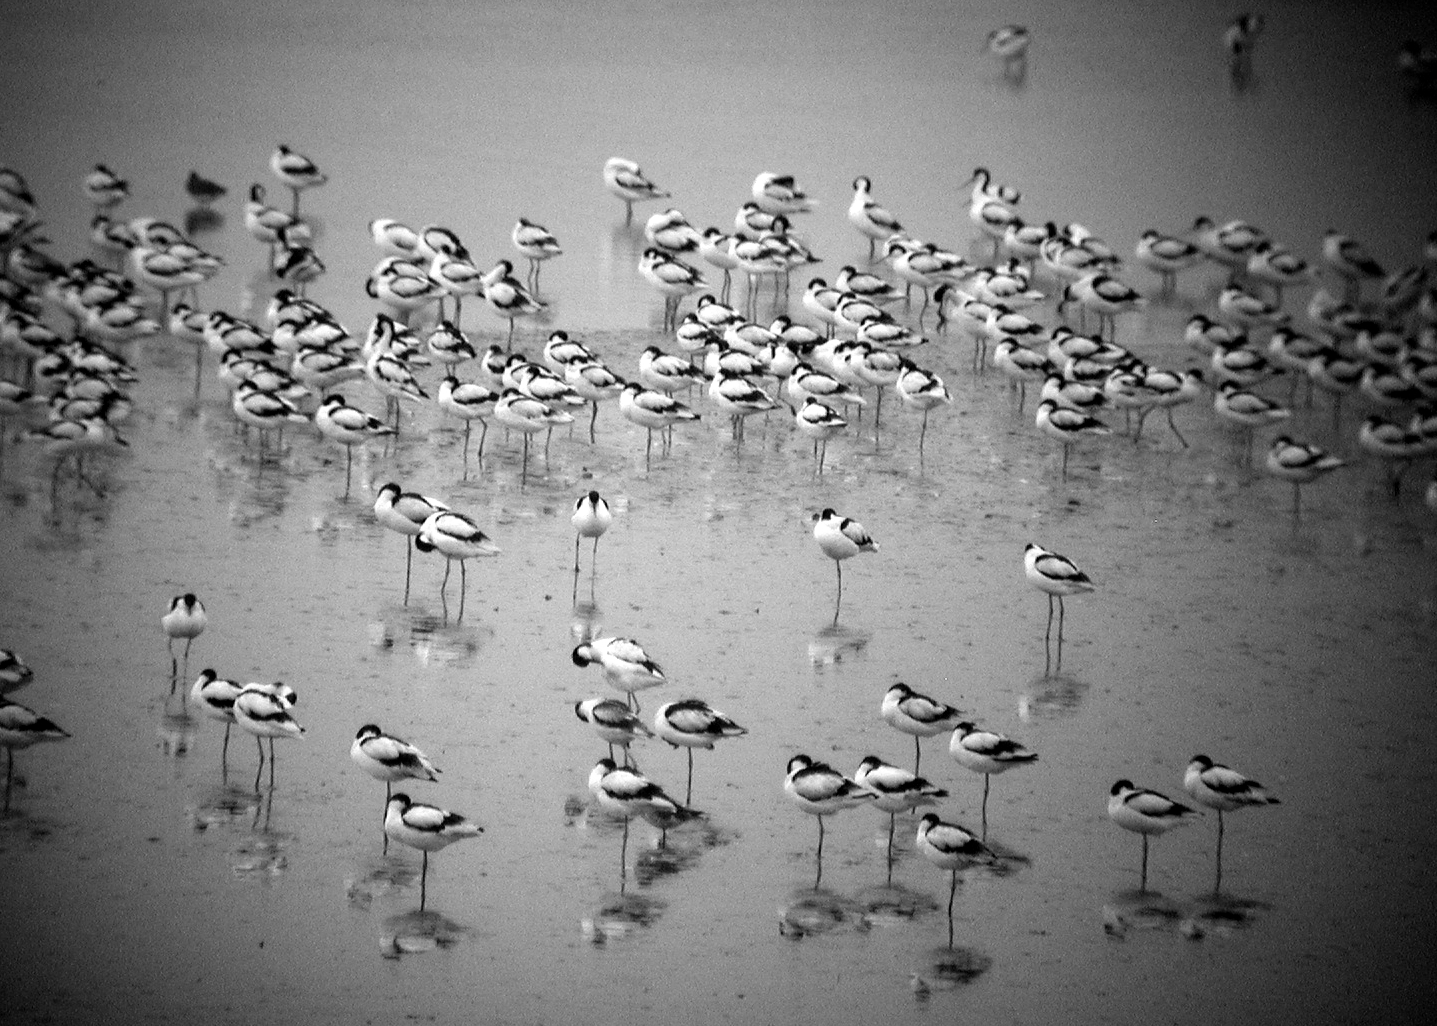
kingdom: Animalia
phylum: Chordata
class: Aves
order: Charadriiformes
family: Recurvirostridae
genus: Recurvirostra
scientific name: Recurvirostra avosetta
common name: Pied avocet
